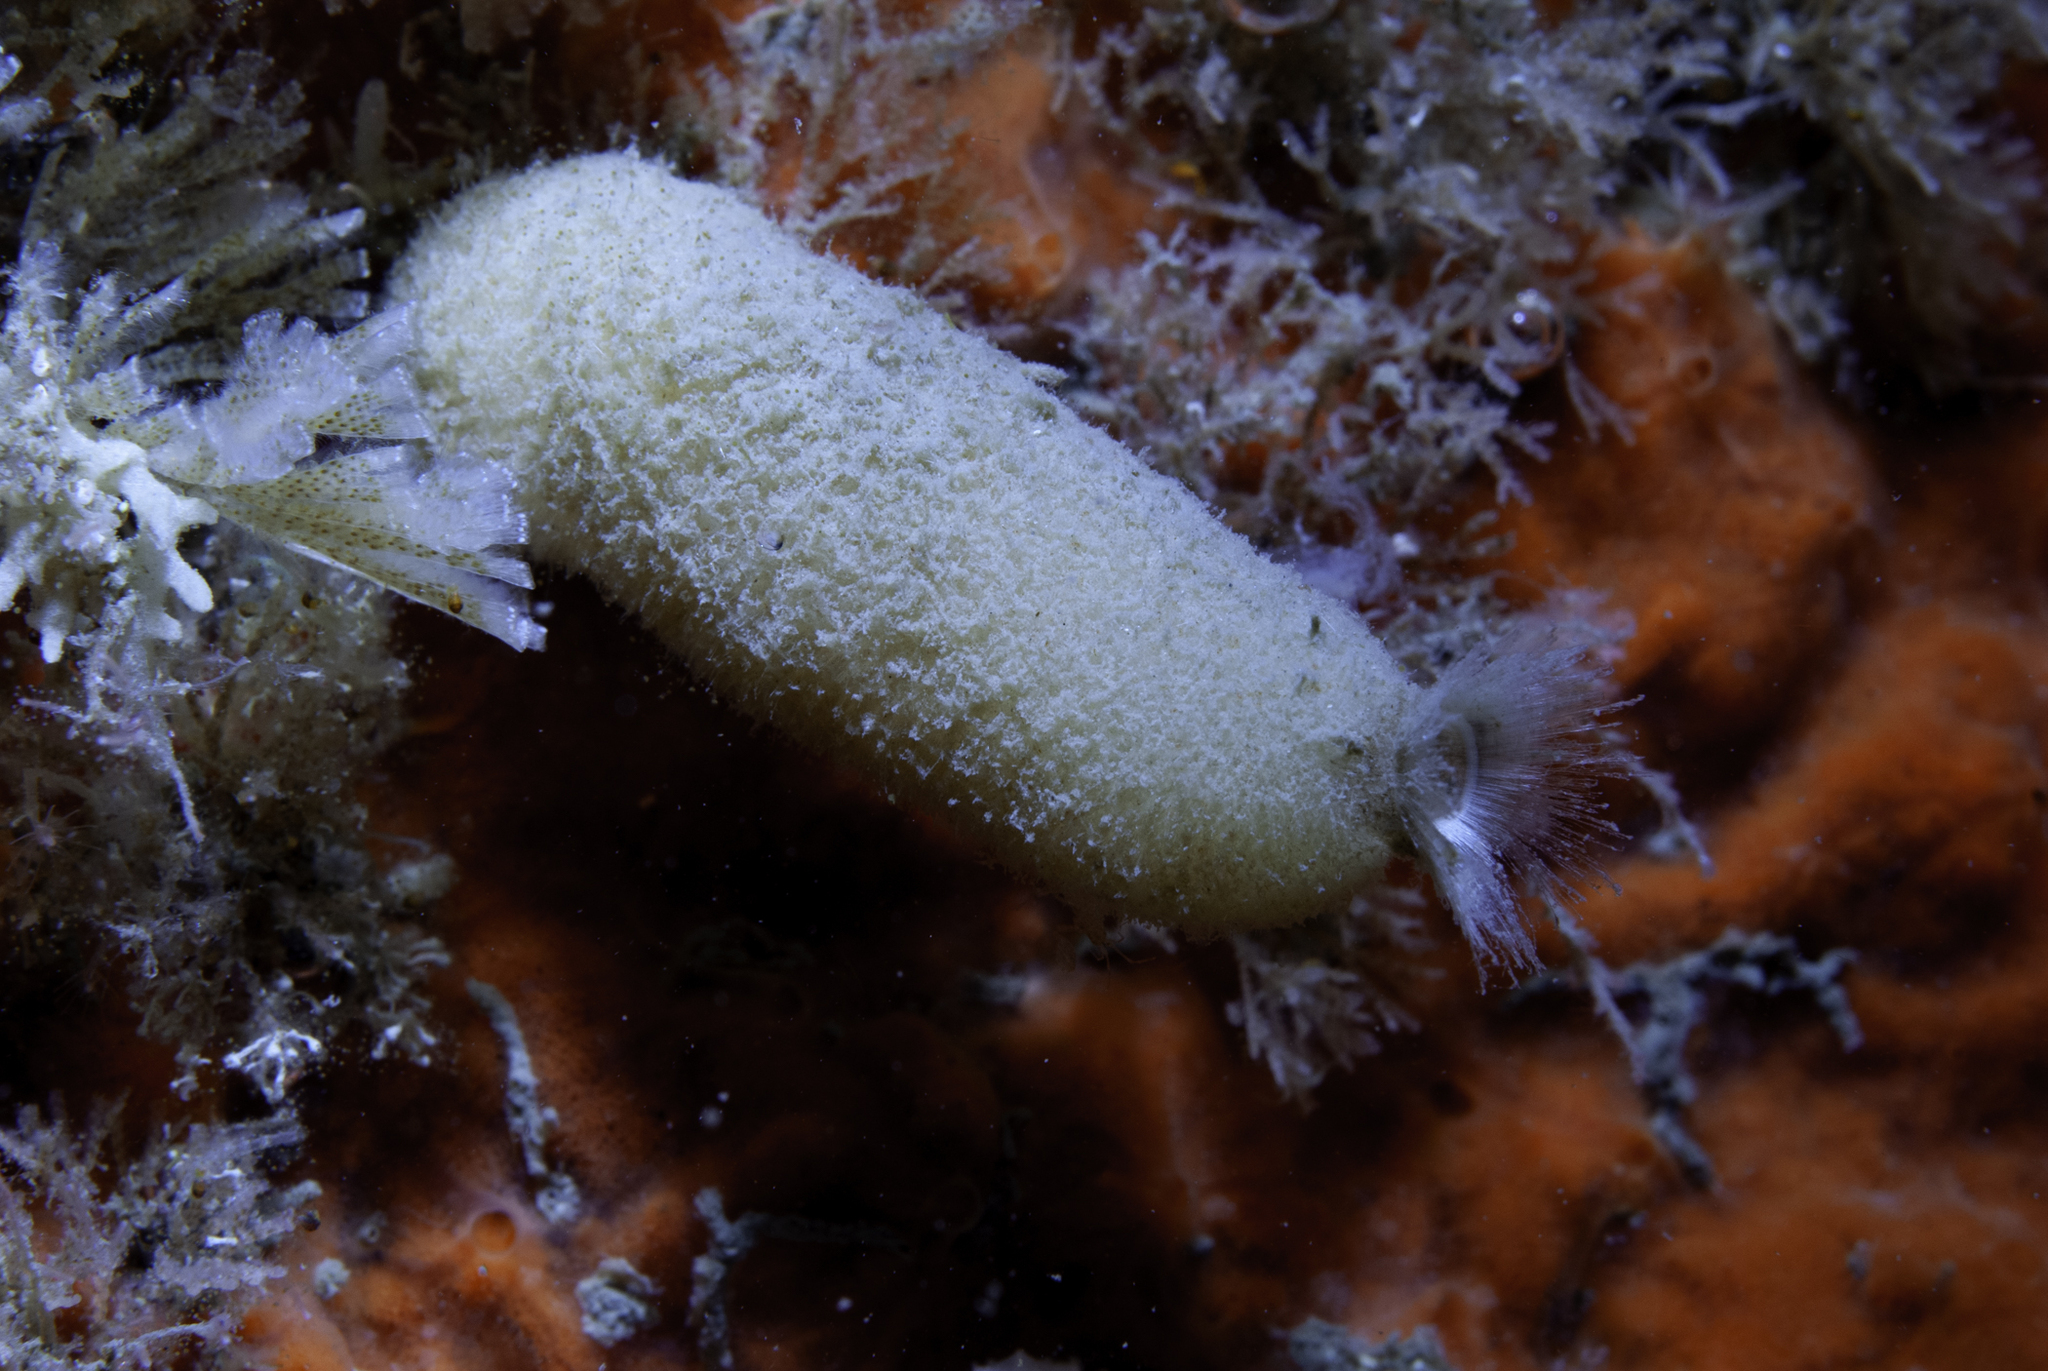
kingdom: Animalia
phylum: Porifera
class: Calcarea
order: Leucosolenida
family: Syconidae
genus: Sycon
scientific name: Sycon ciliatum
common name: Ciliated sponge
